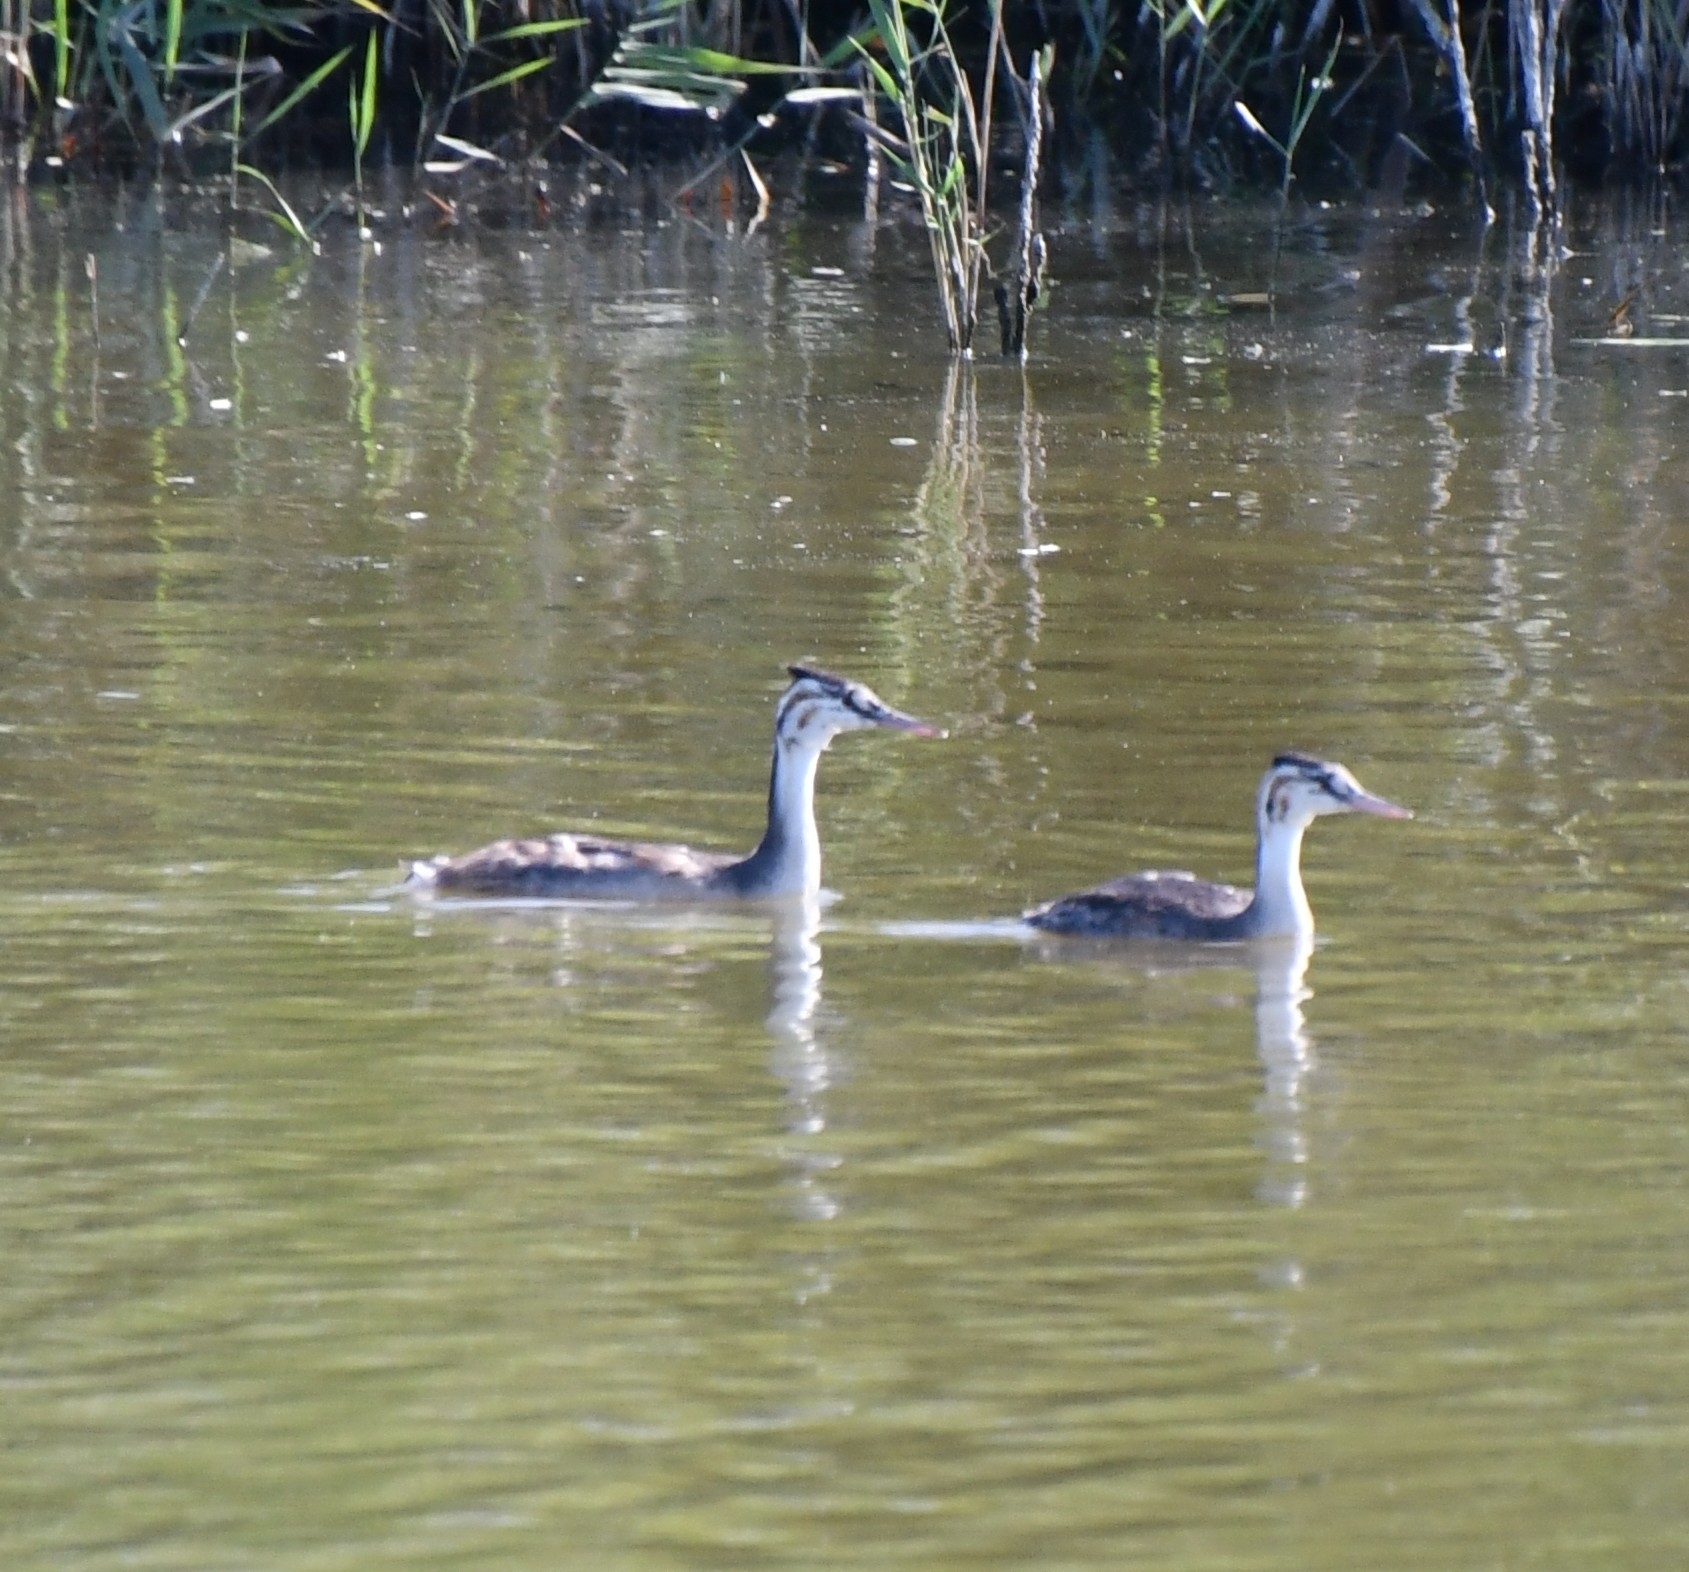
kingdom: Animalia
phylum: Chordata
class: Aves
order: Podicipediformes
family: Podicipedidae
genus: Podiceps
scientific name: Podiceps cristatus
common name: Great crested grebe
